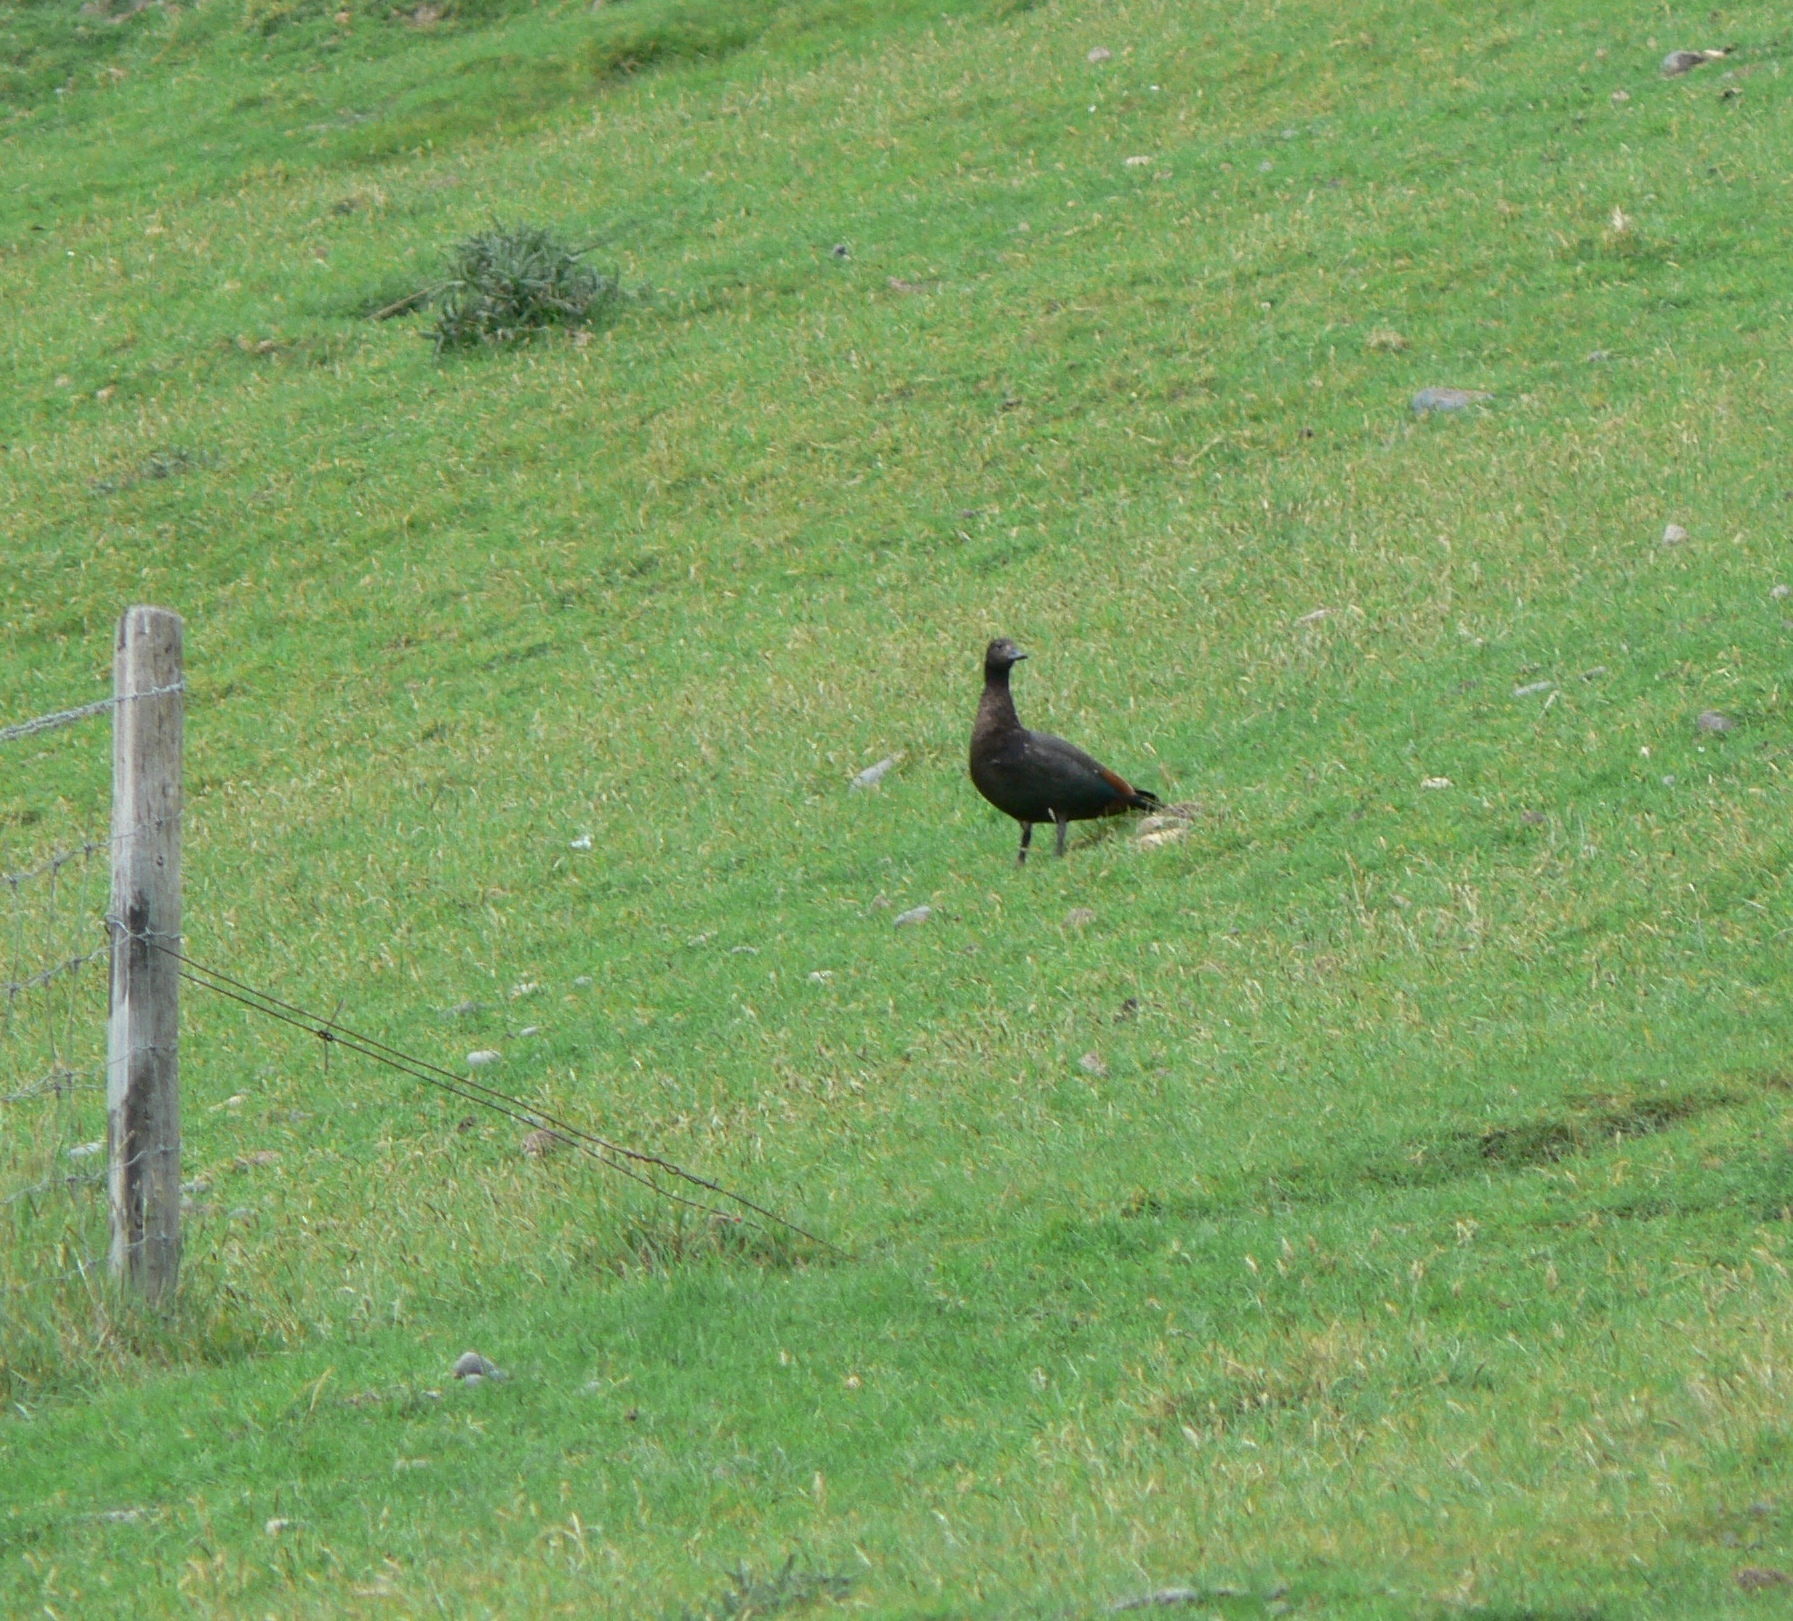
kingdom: Animalia
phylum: Chordata
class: Aves
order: Anseriformes
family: Anatidae
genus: Tadorna
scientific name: Tadorna variegata
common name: Paradise shelduck
